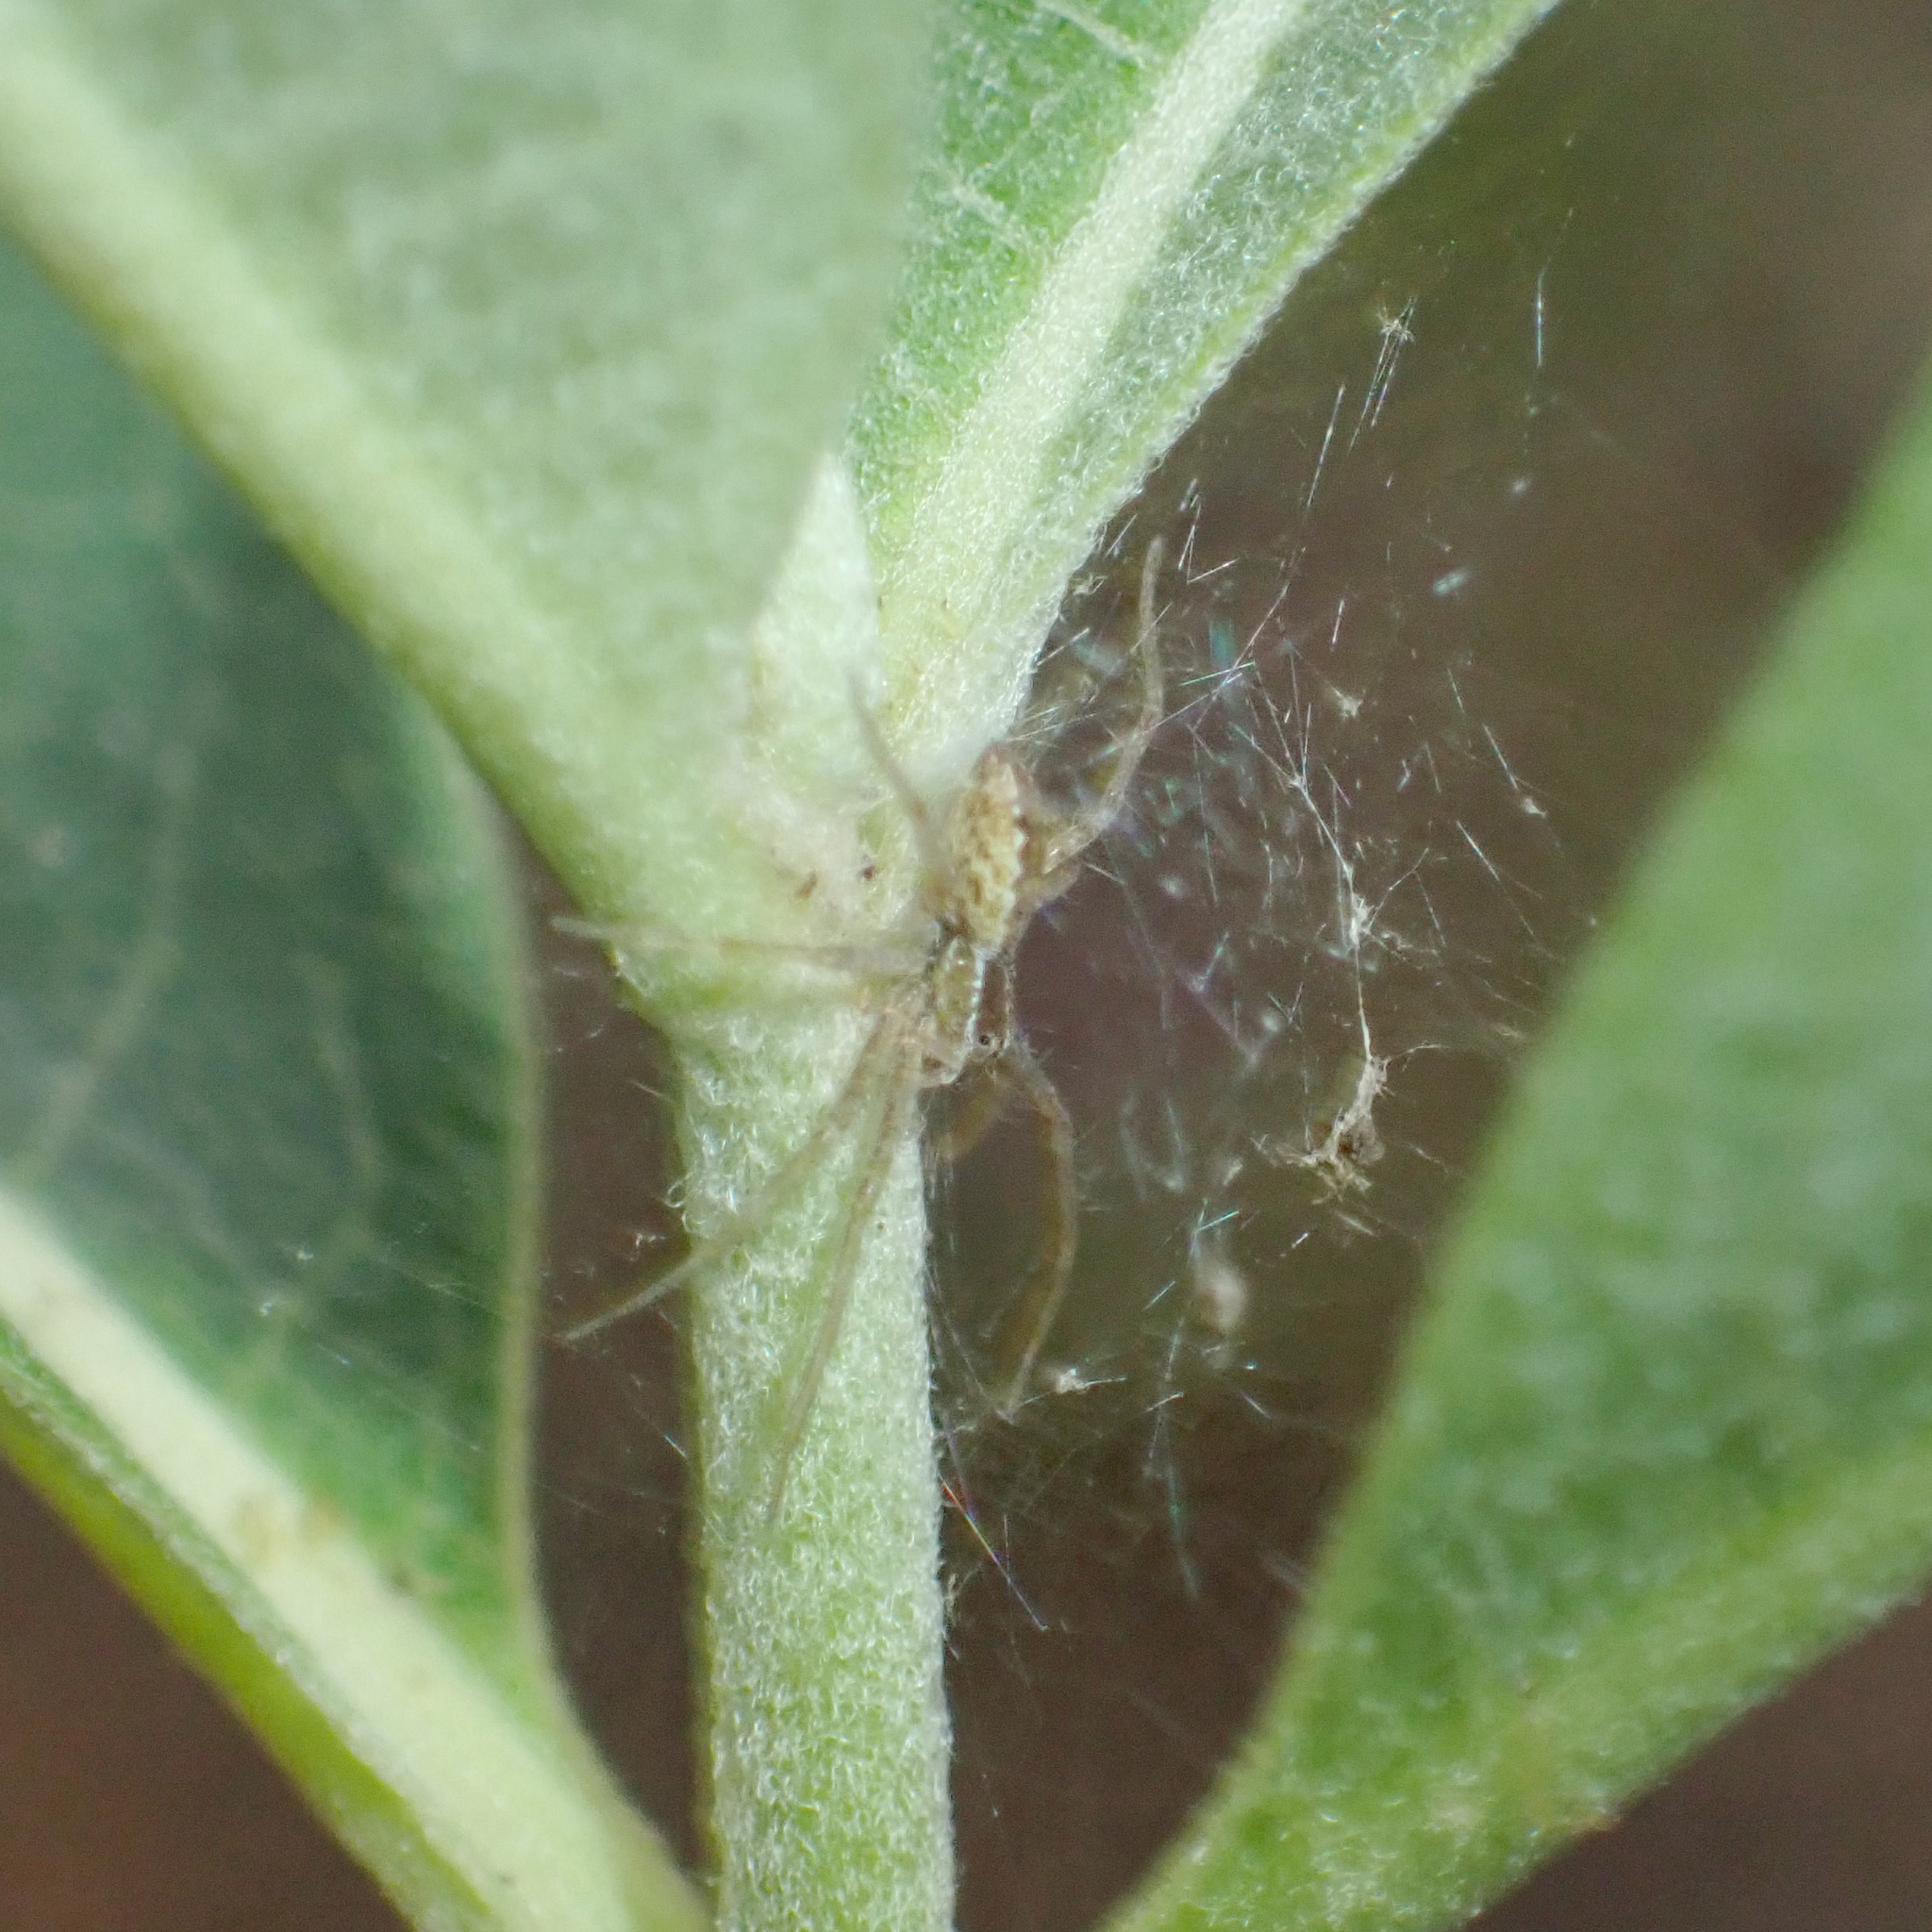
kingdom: Animalia
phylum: Arthropoda
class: Arachnida
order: Araneae
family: Pisauridae
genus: Pisaurina
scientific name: Pisaurina mira
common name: American nursery web spider
